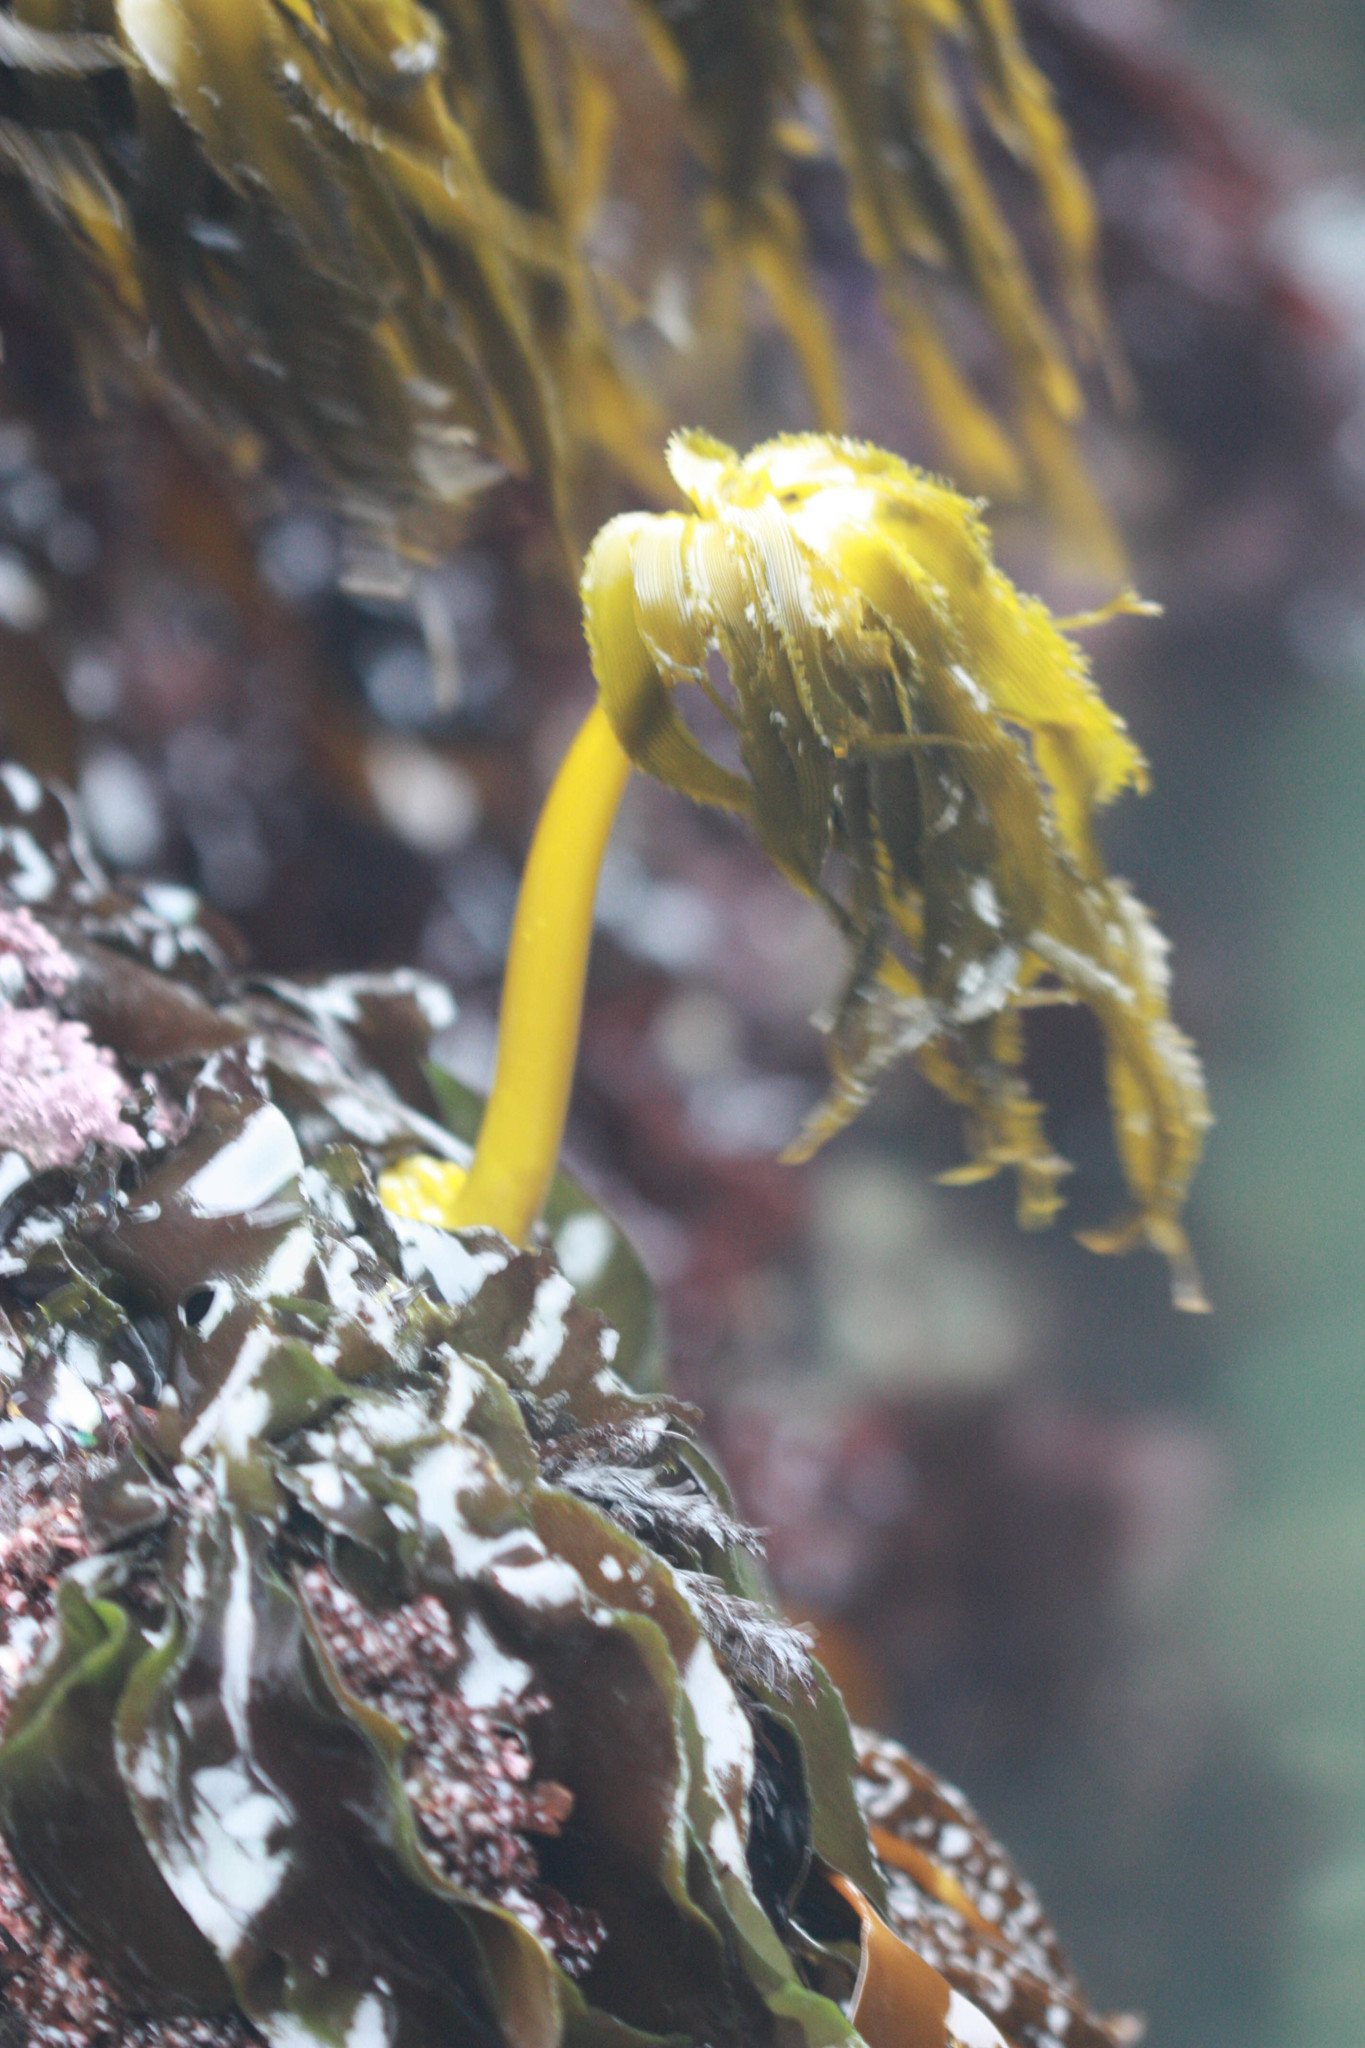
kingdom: Chromista
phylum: Ochrophyta
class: Phaeophyceae
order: Laminariales
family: Laminariaceae
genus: Postelsia
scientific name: Postelsia palmiformis
